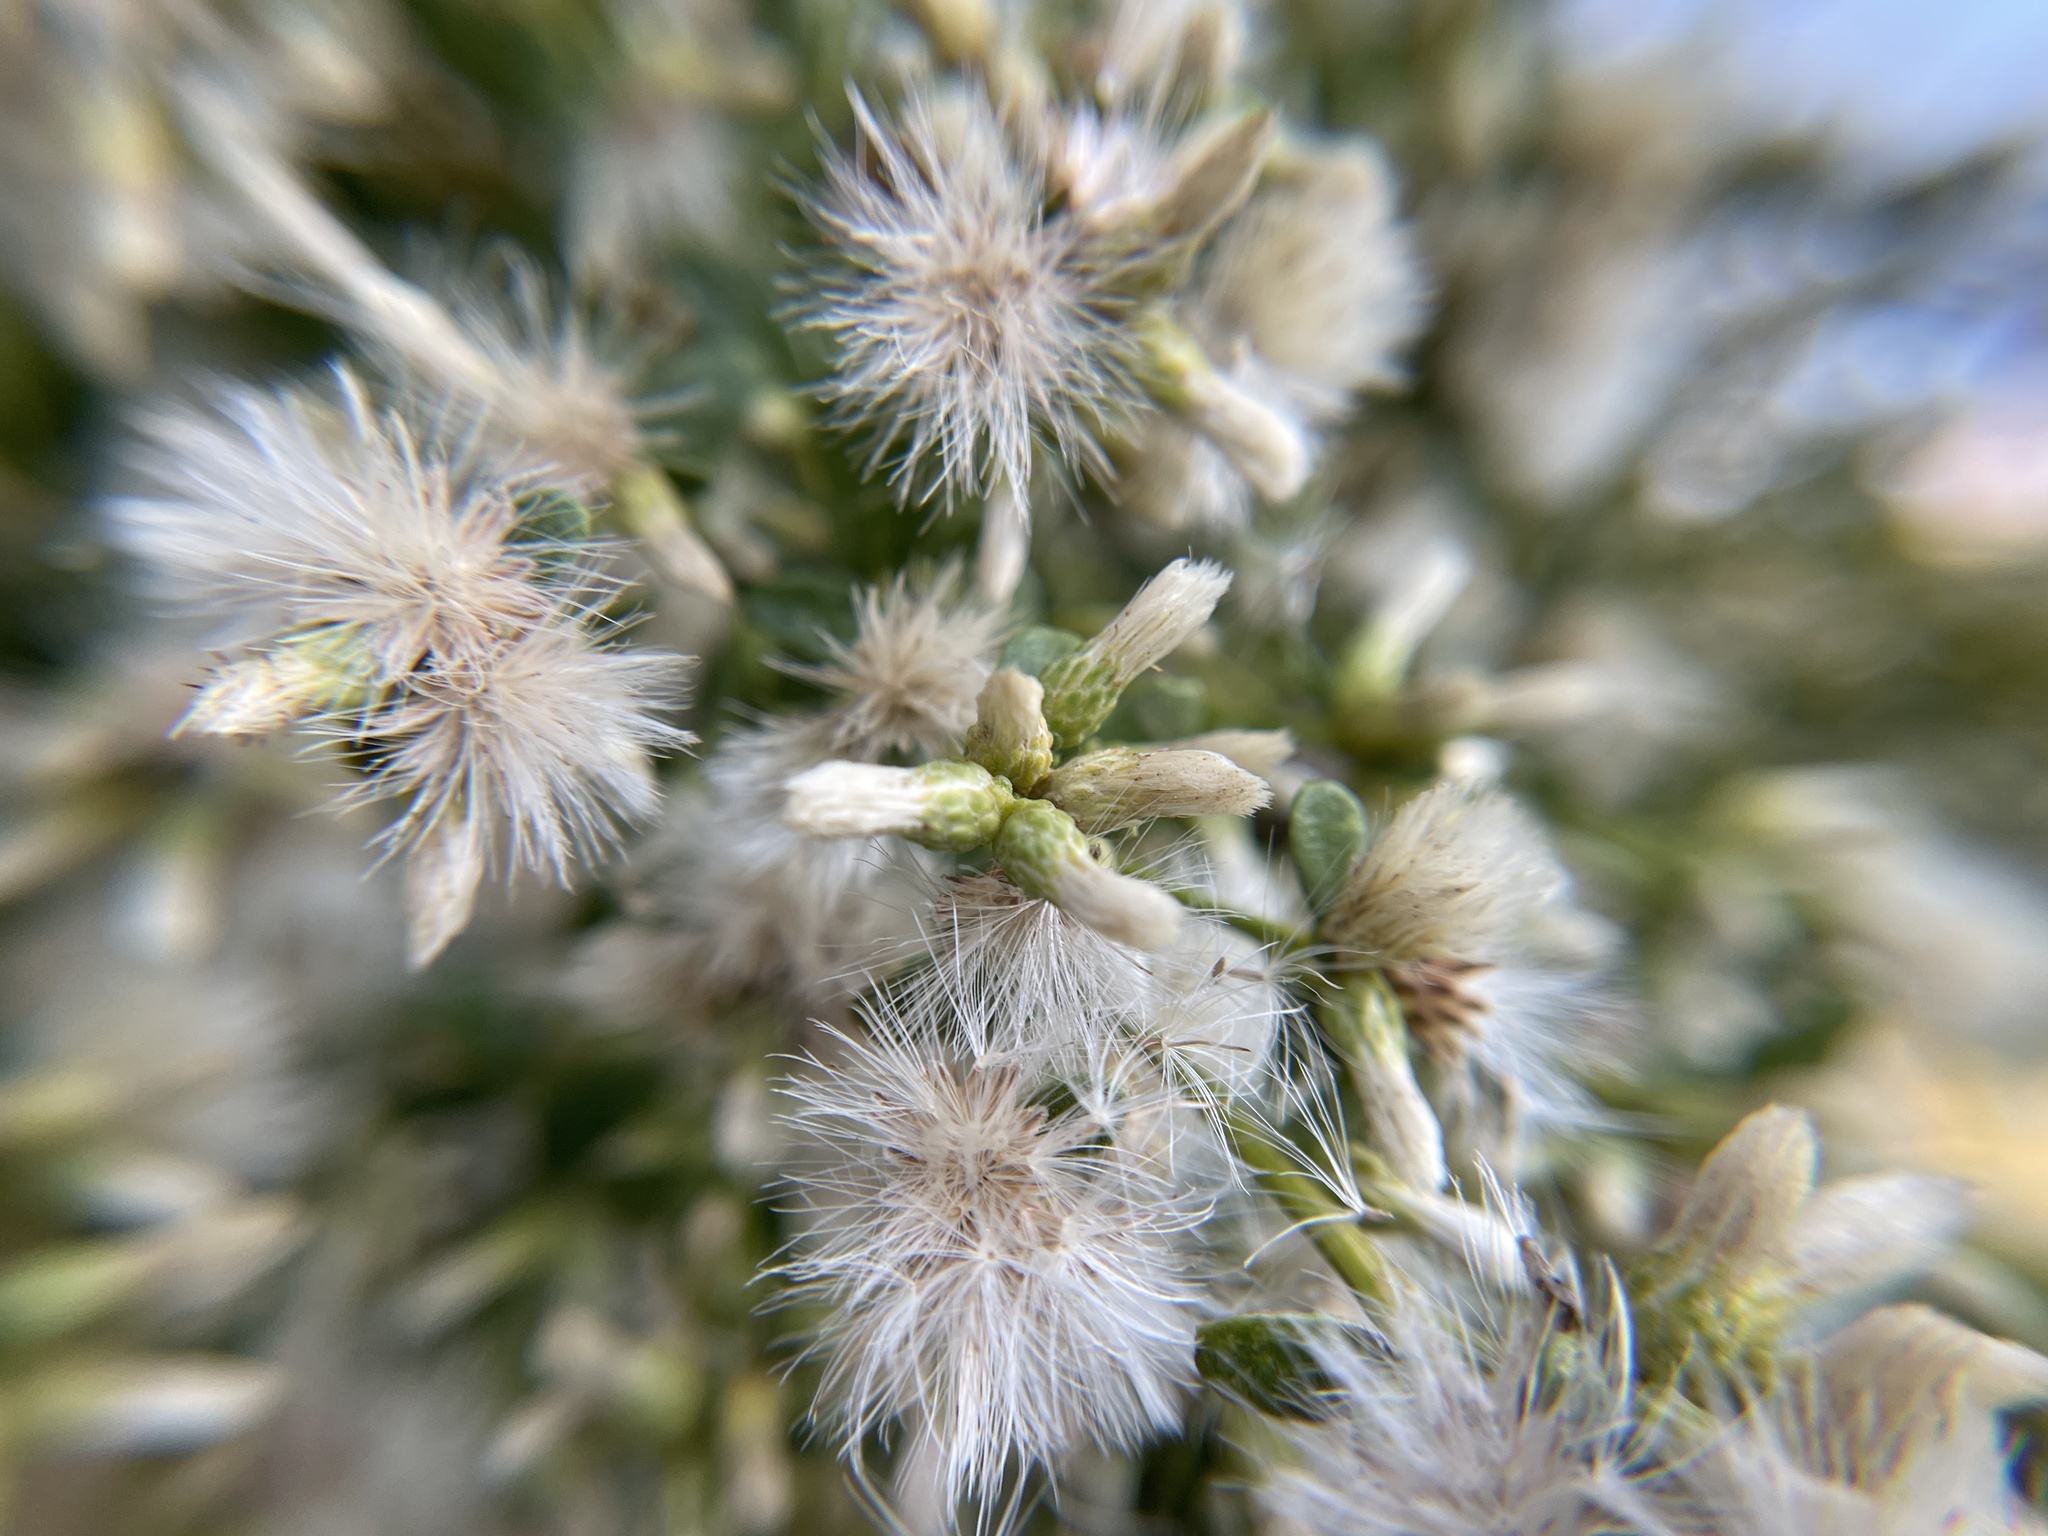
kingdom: Plantae
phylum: Tracheophyta
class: Magnoliopsida
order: Asterales
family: Asteraceae
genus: Baccharis
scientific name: Baccharis pilularis
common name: Coyotebrush
